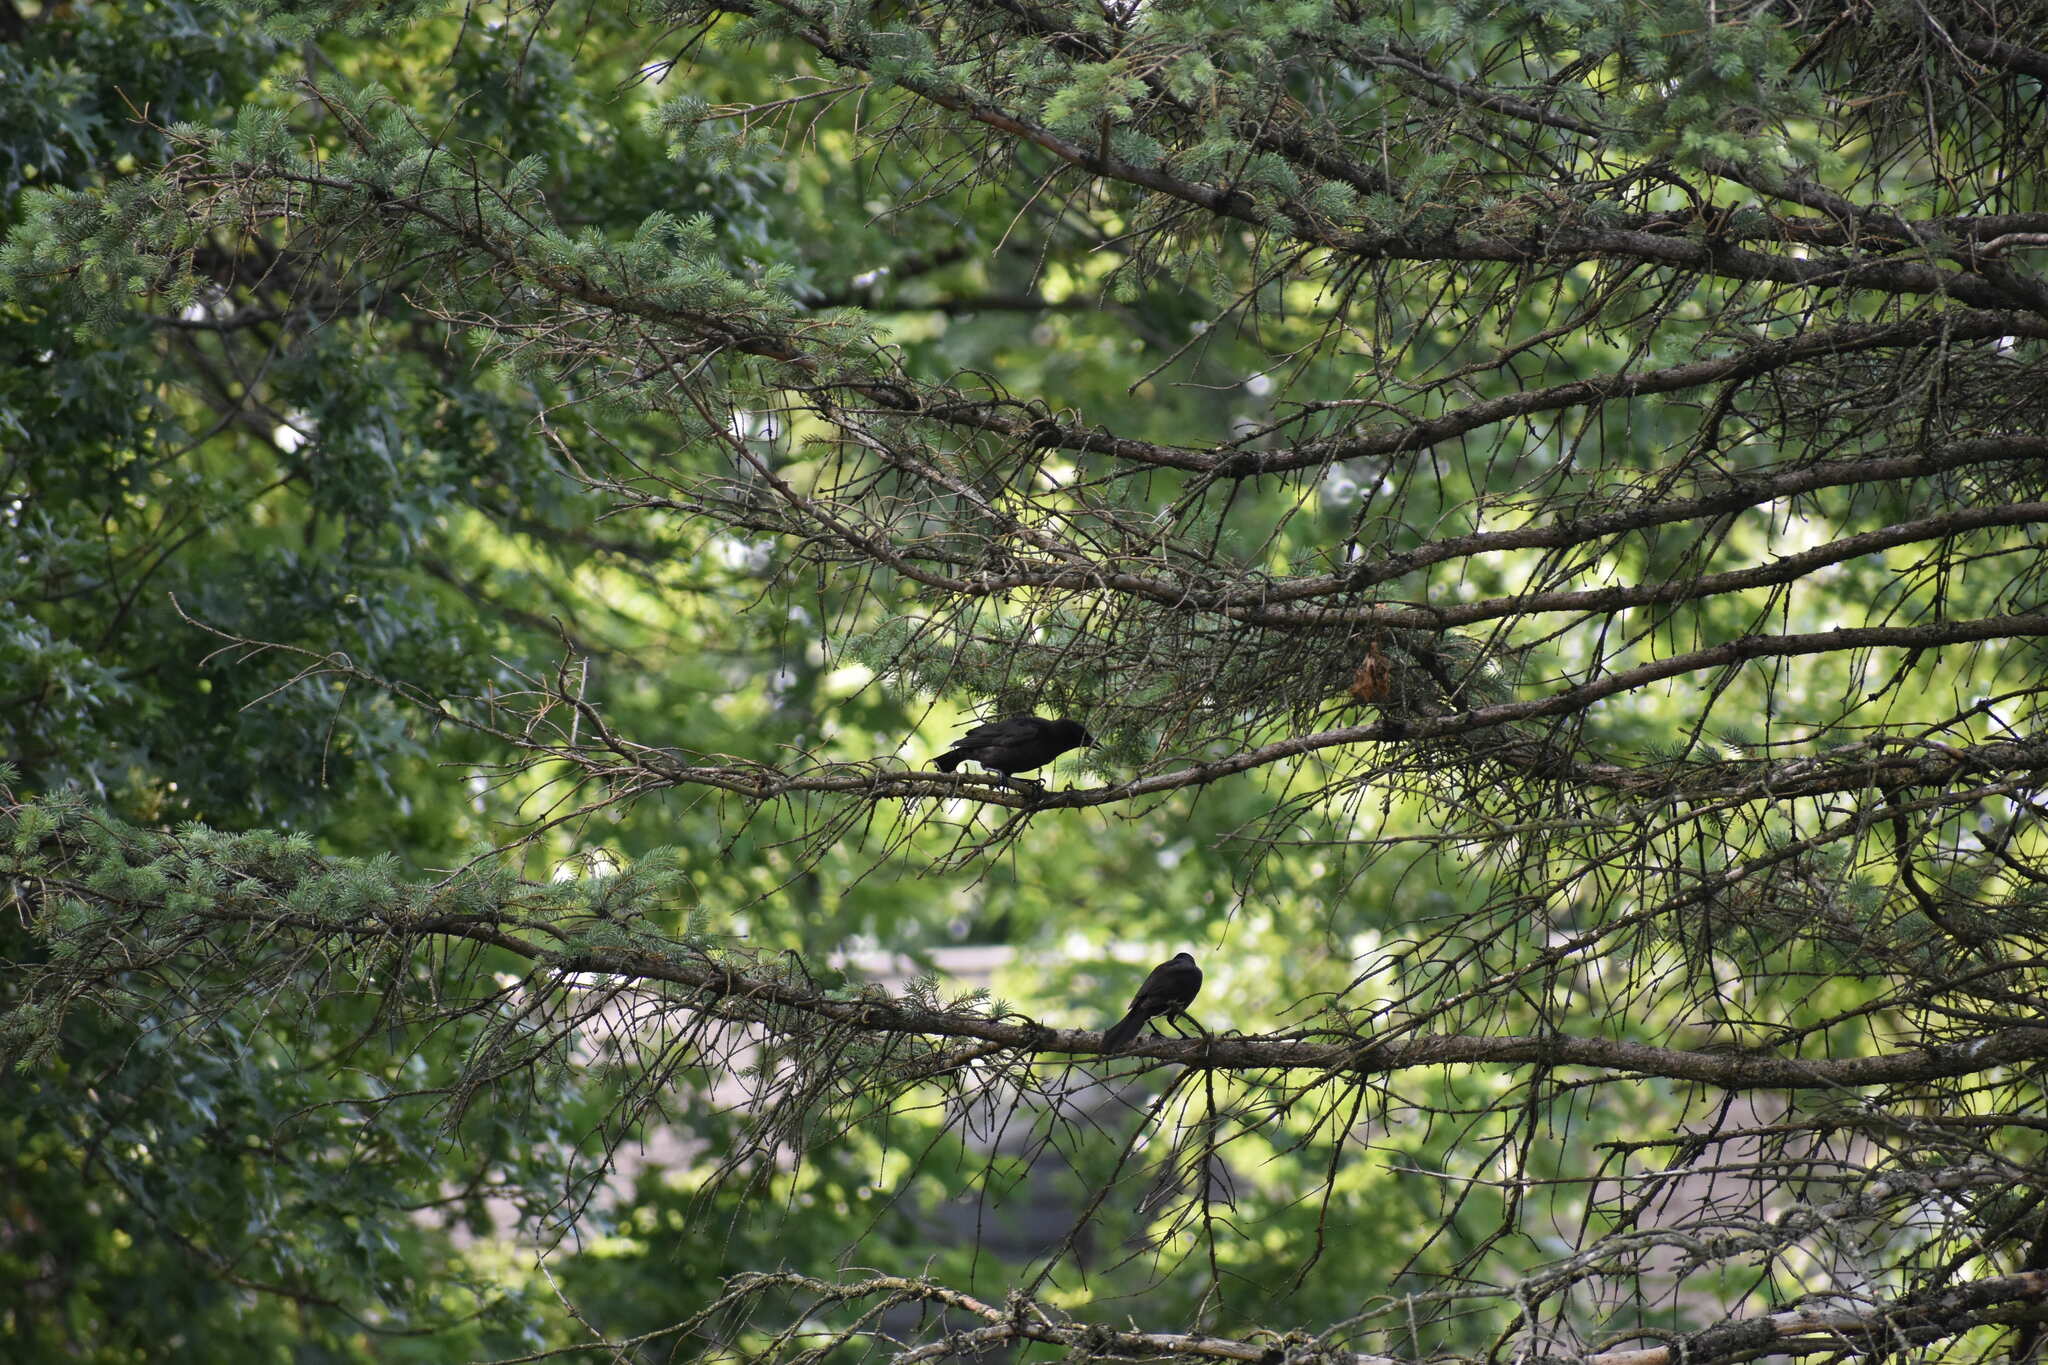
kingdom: Animalia
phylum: Chordata
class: Aves
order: Passeriformes
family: Icteridae
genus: Quiscalus
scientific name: Quiscalus quiscula
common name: Common grackle
